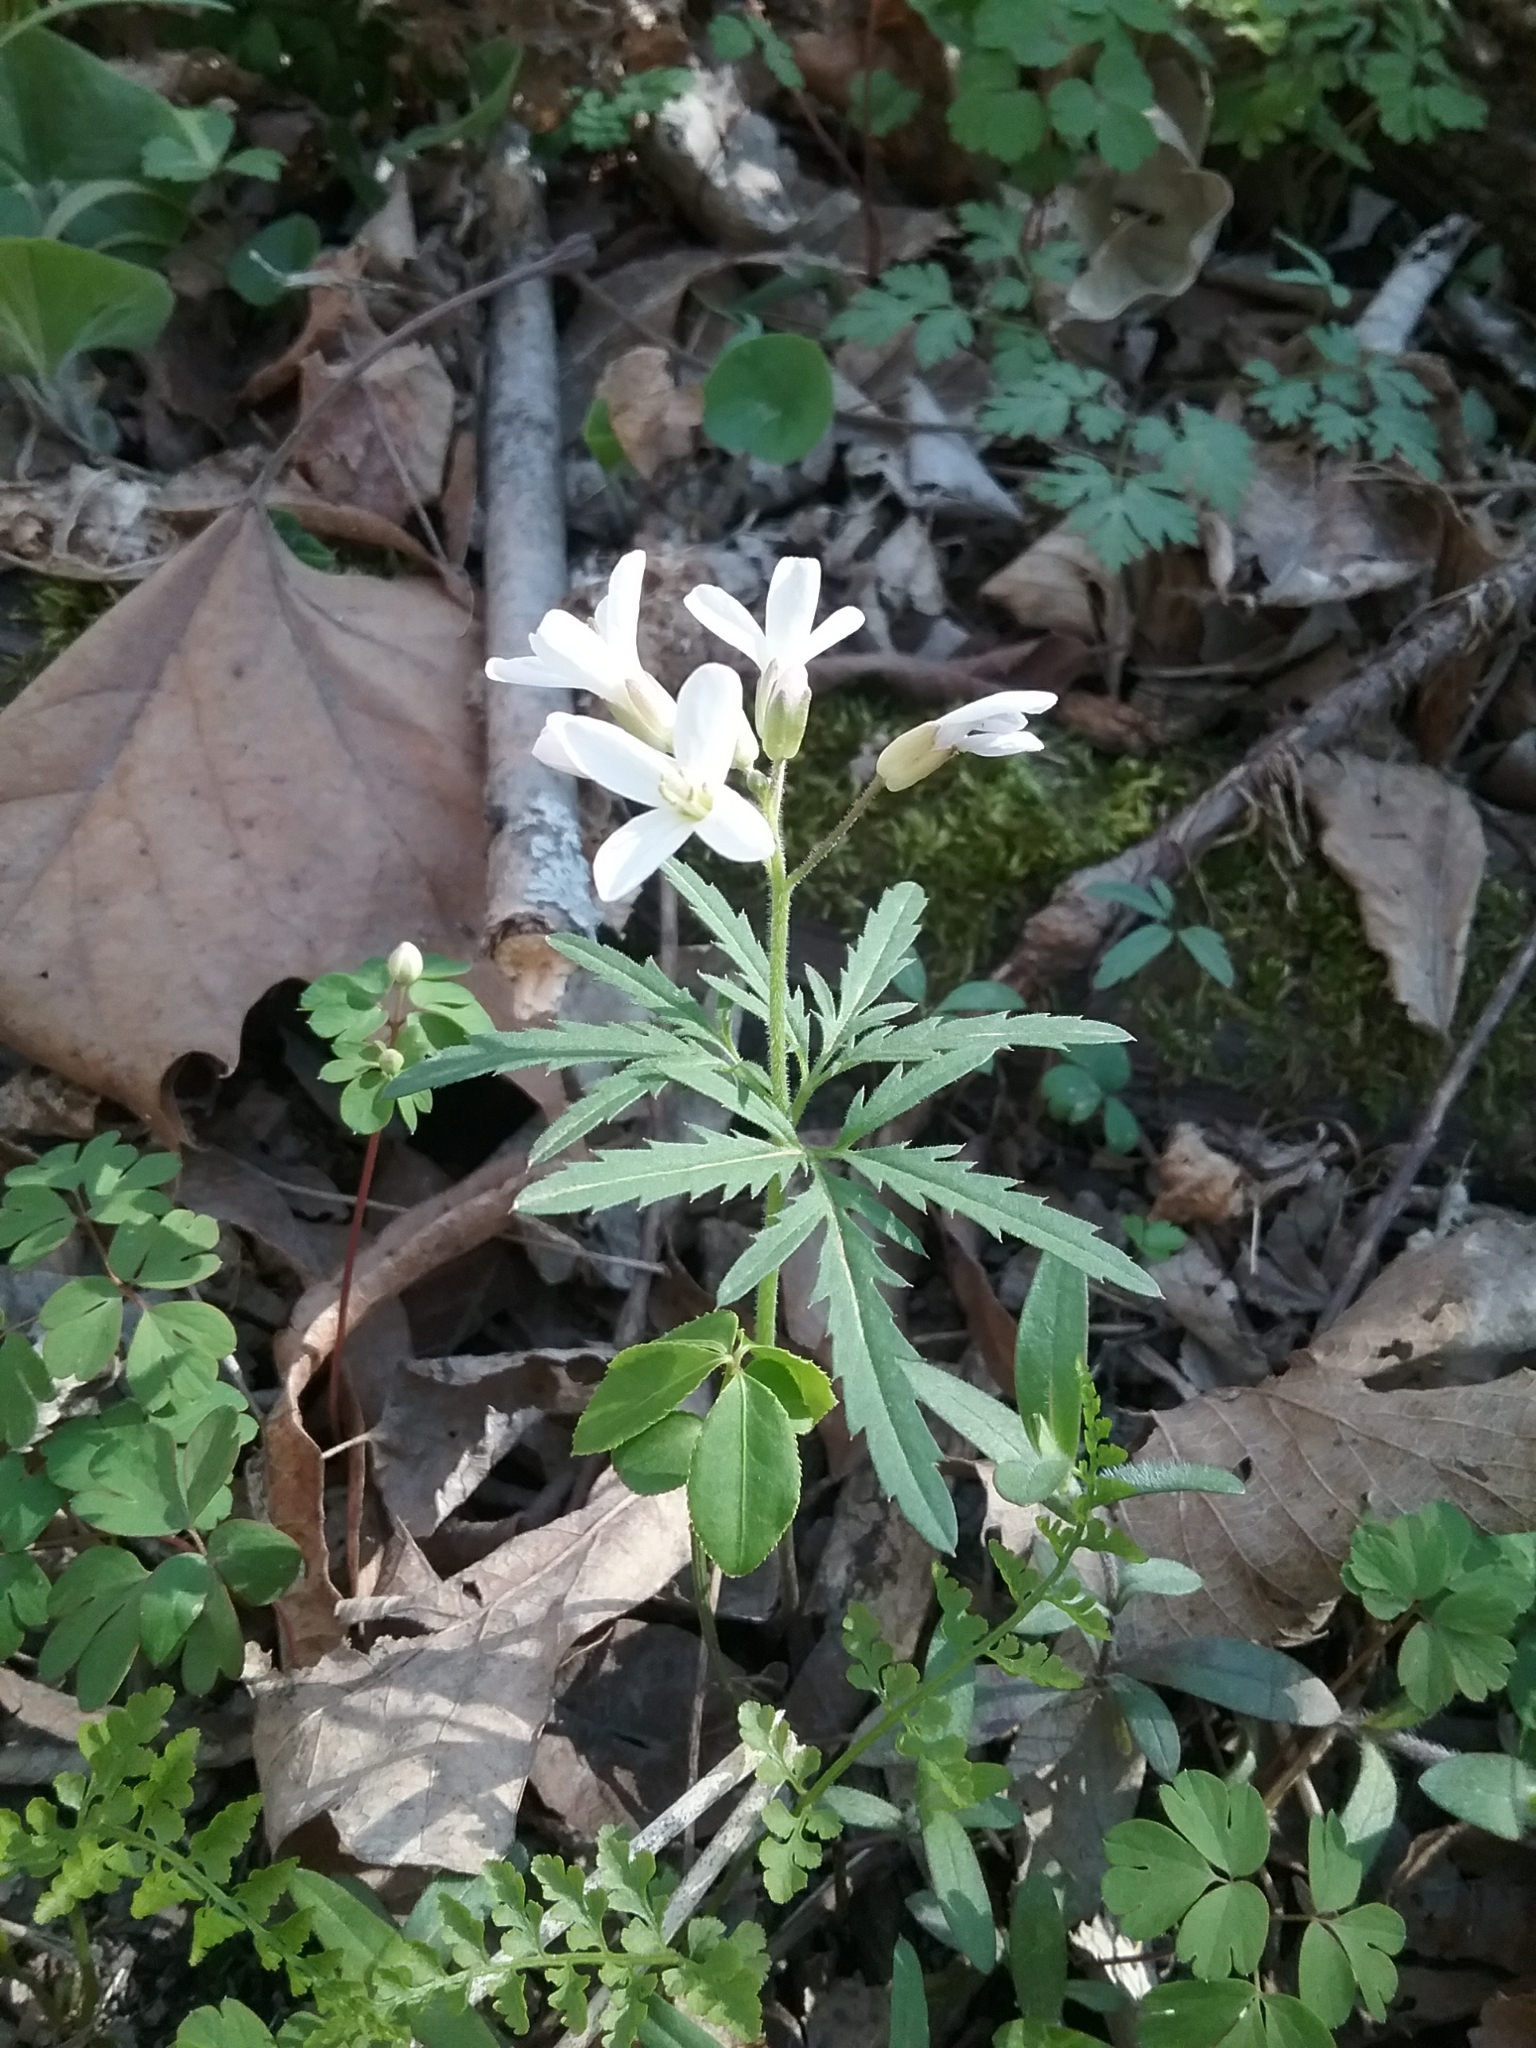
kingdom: Plantae
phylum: Tracheophyta
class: Magnoliopsida
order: Brassicales
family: Brassicaceae
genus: Cardamine
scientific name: Cardamine concatenata
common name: Cut-leaf toothcup
